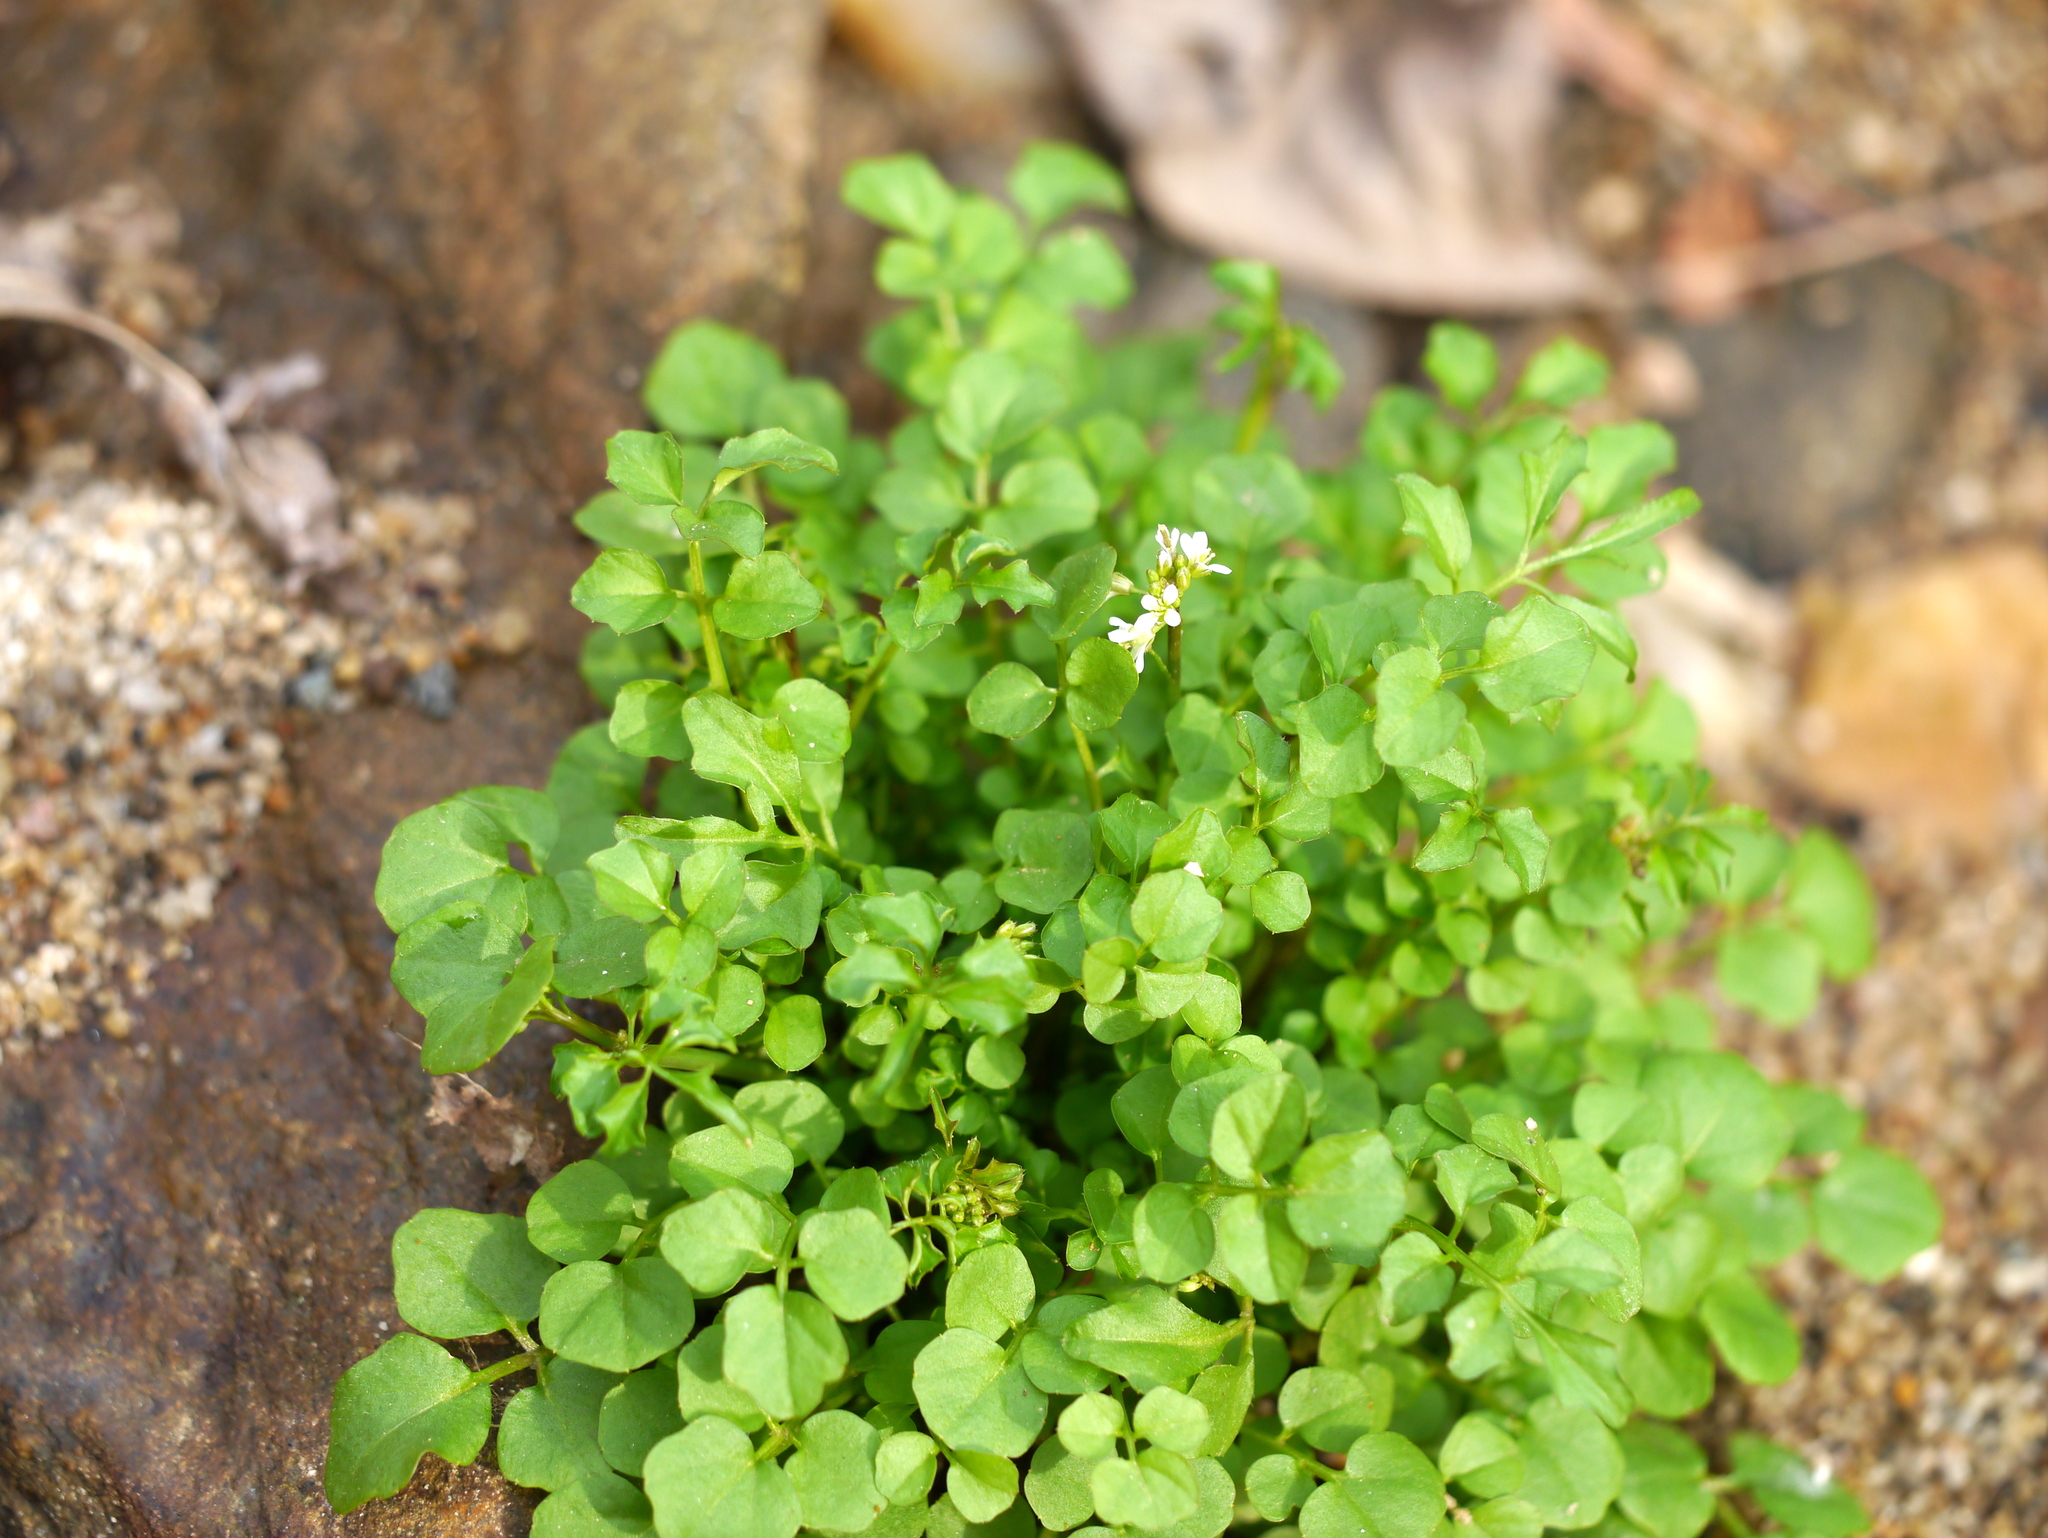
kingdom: Plantae
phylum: Tracheophyta
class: Magnoliopsida
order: Brassicales
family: Brassicaceae
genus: Cardamine
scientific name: Cardamine hirsuta
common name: Hairy bittercress
